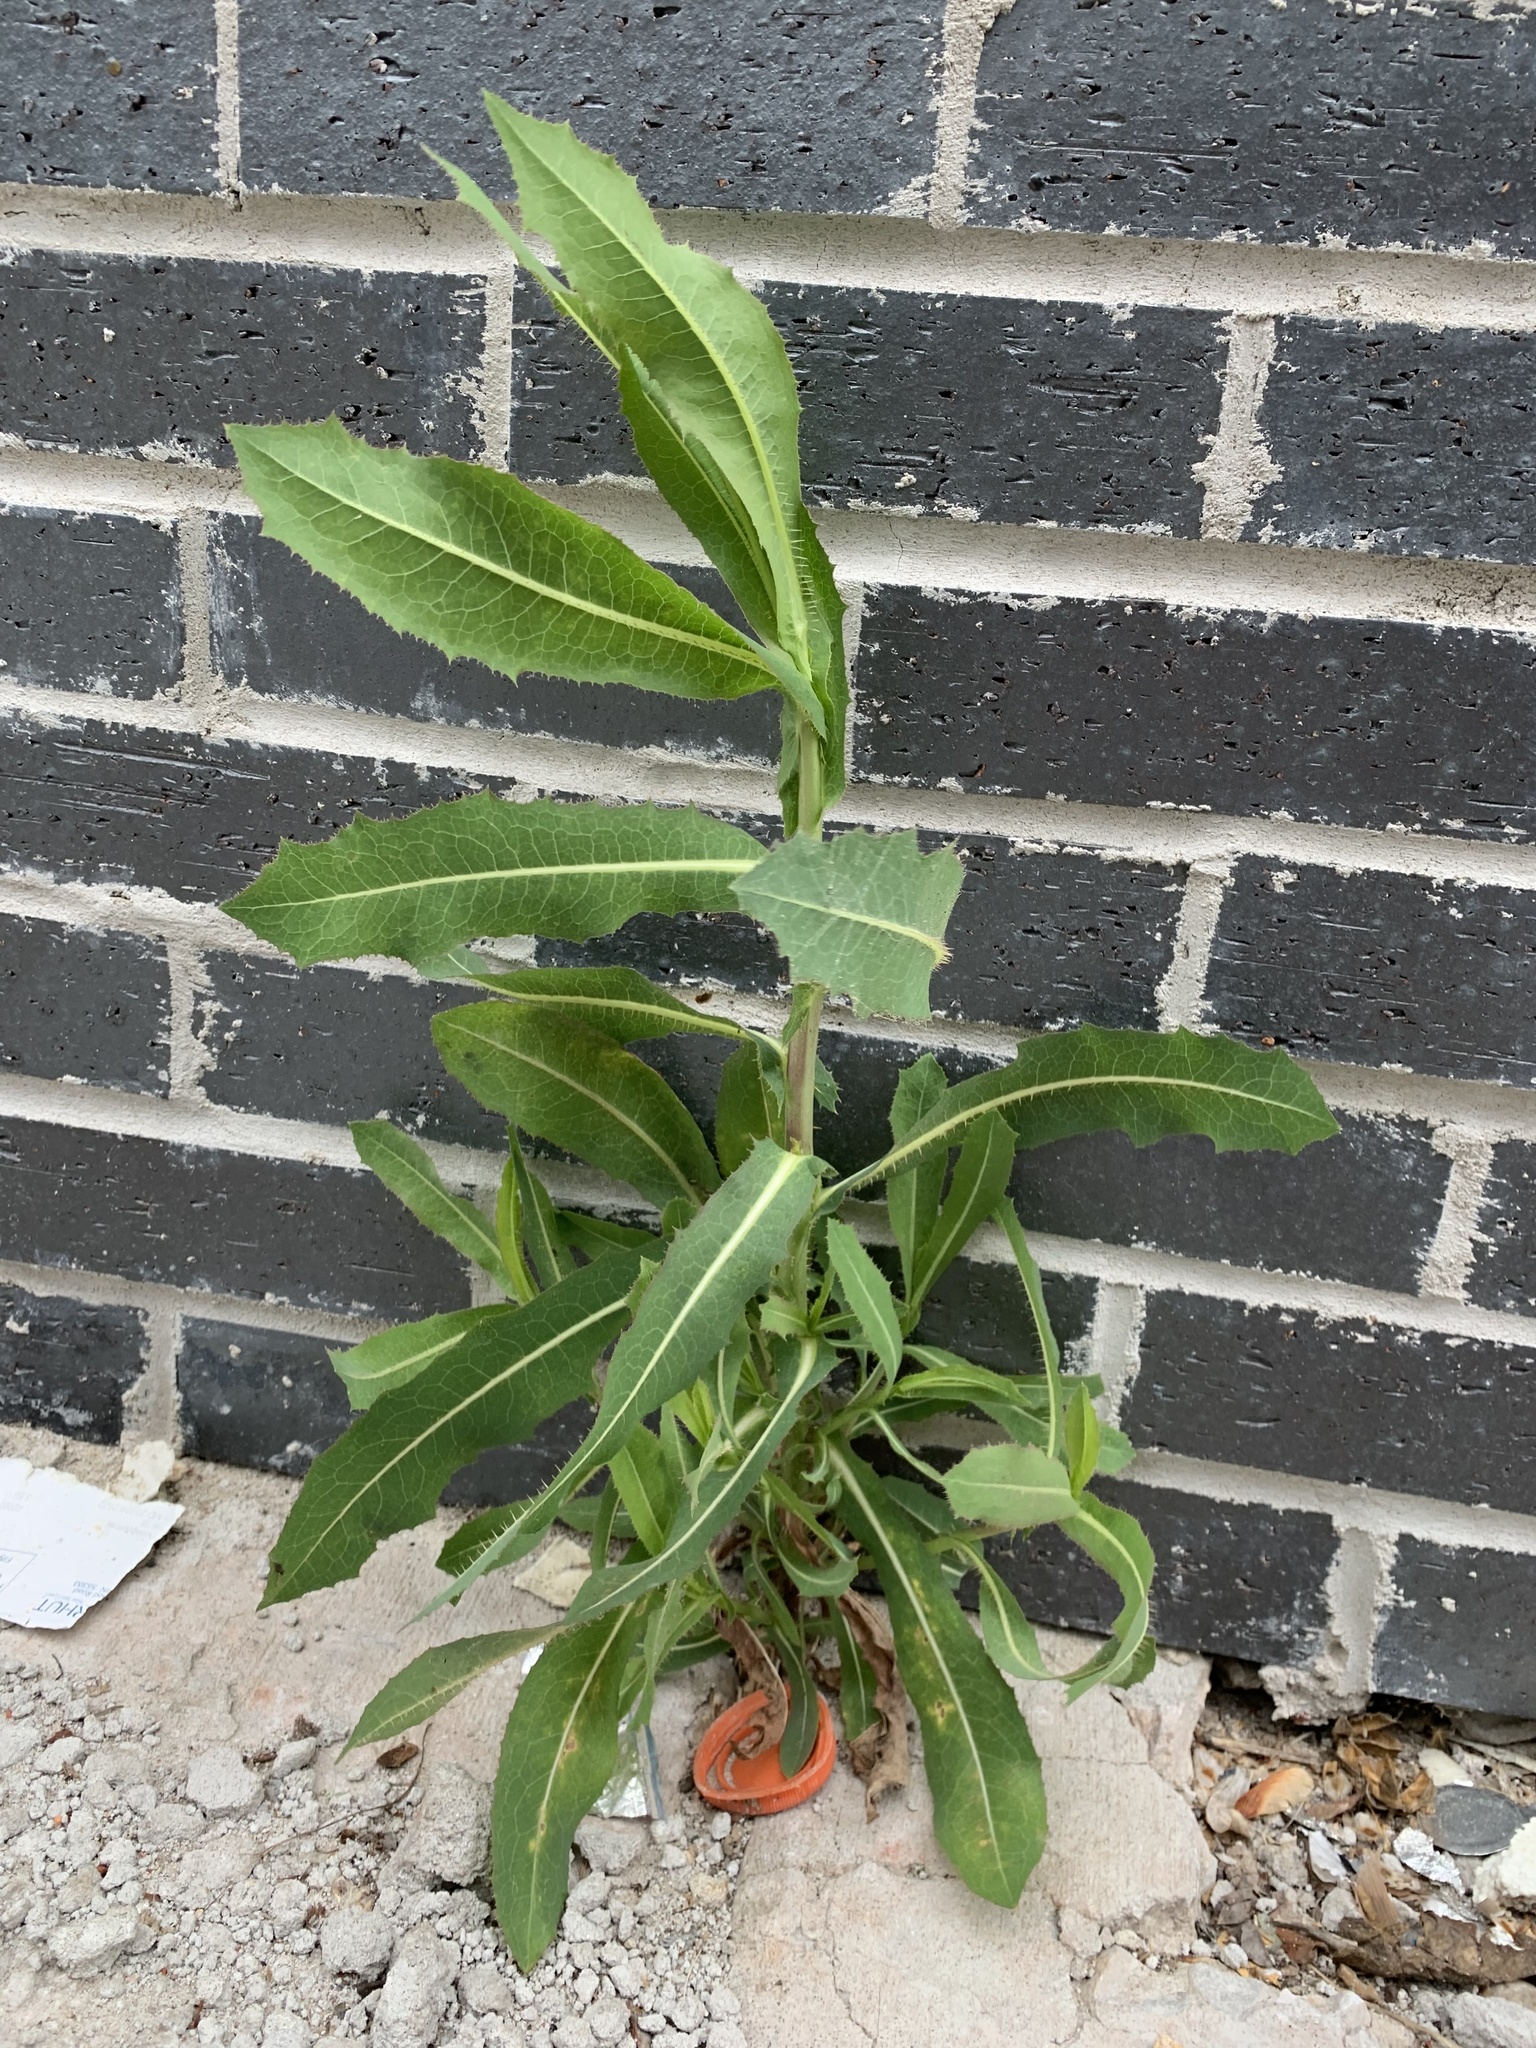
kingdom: Plantae
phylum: Tracheophyta
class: Magnoliopsida
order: Asterales
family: Asteraceae
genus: Lactuca
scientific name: Lactuca serriola
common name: Prickly lettuce
